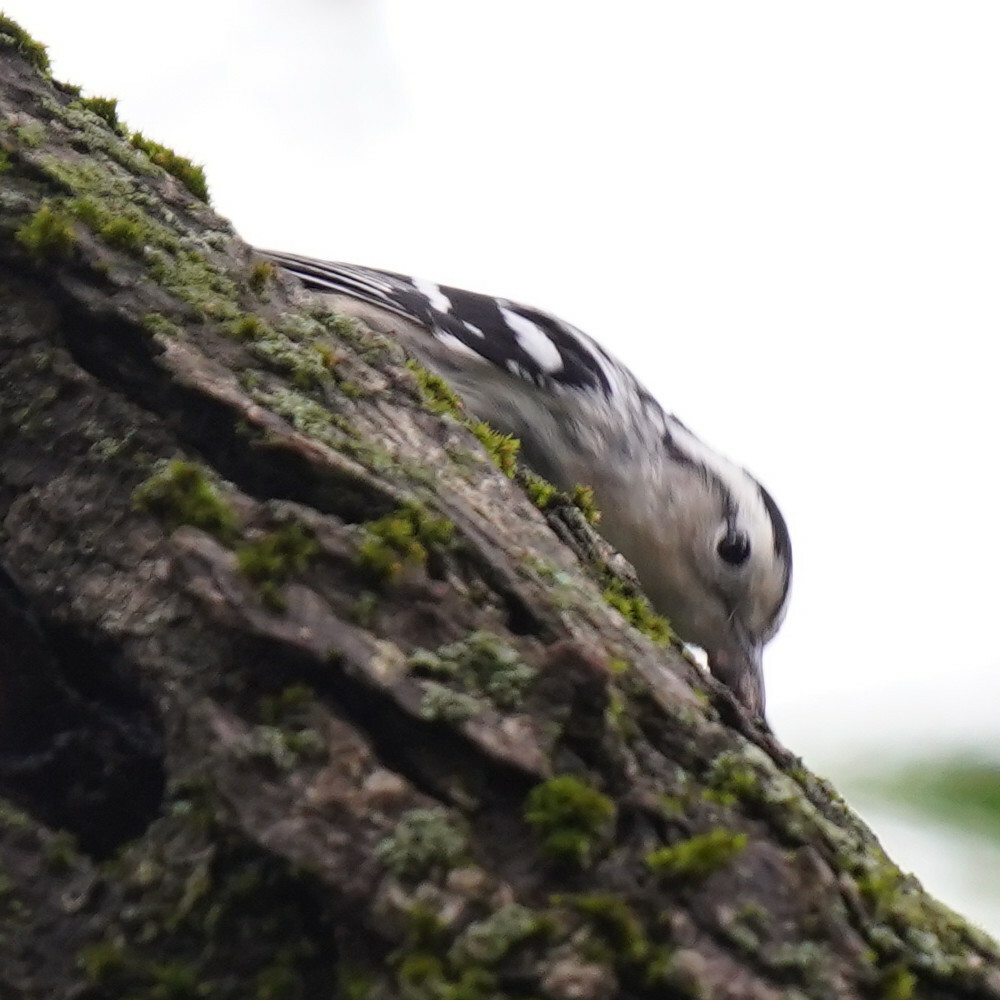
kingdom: Animalia
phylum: Chordata
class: Aves
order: Passeriformes
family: Parulidae
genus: Mniotilta
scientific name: Mniotilta varia
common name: Black-and-white warbler
